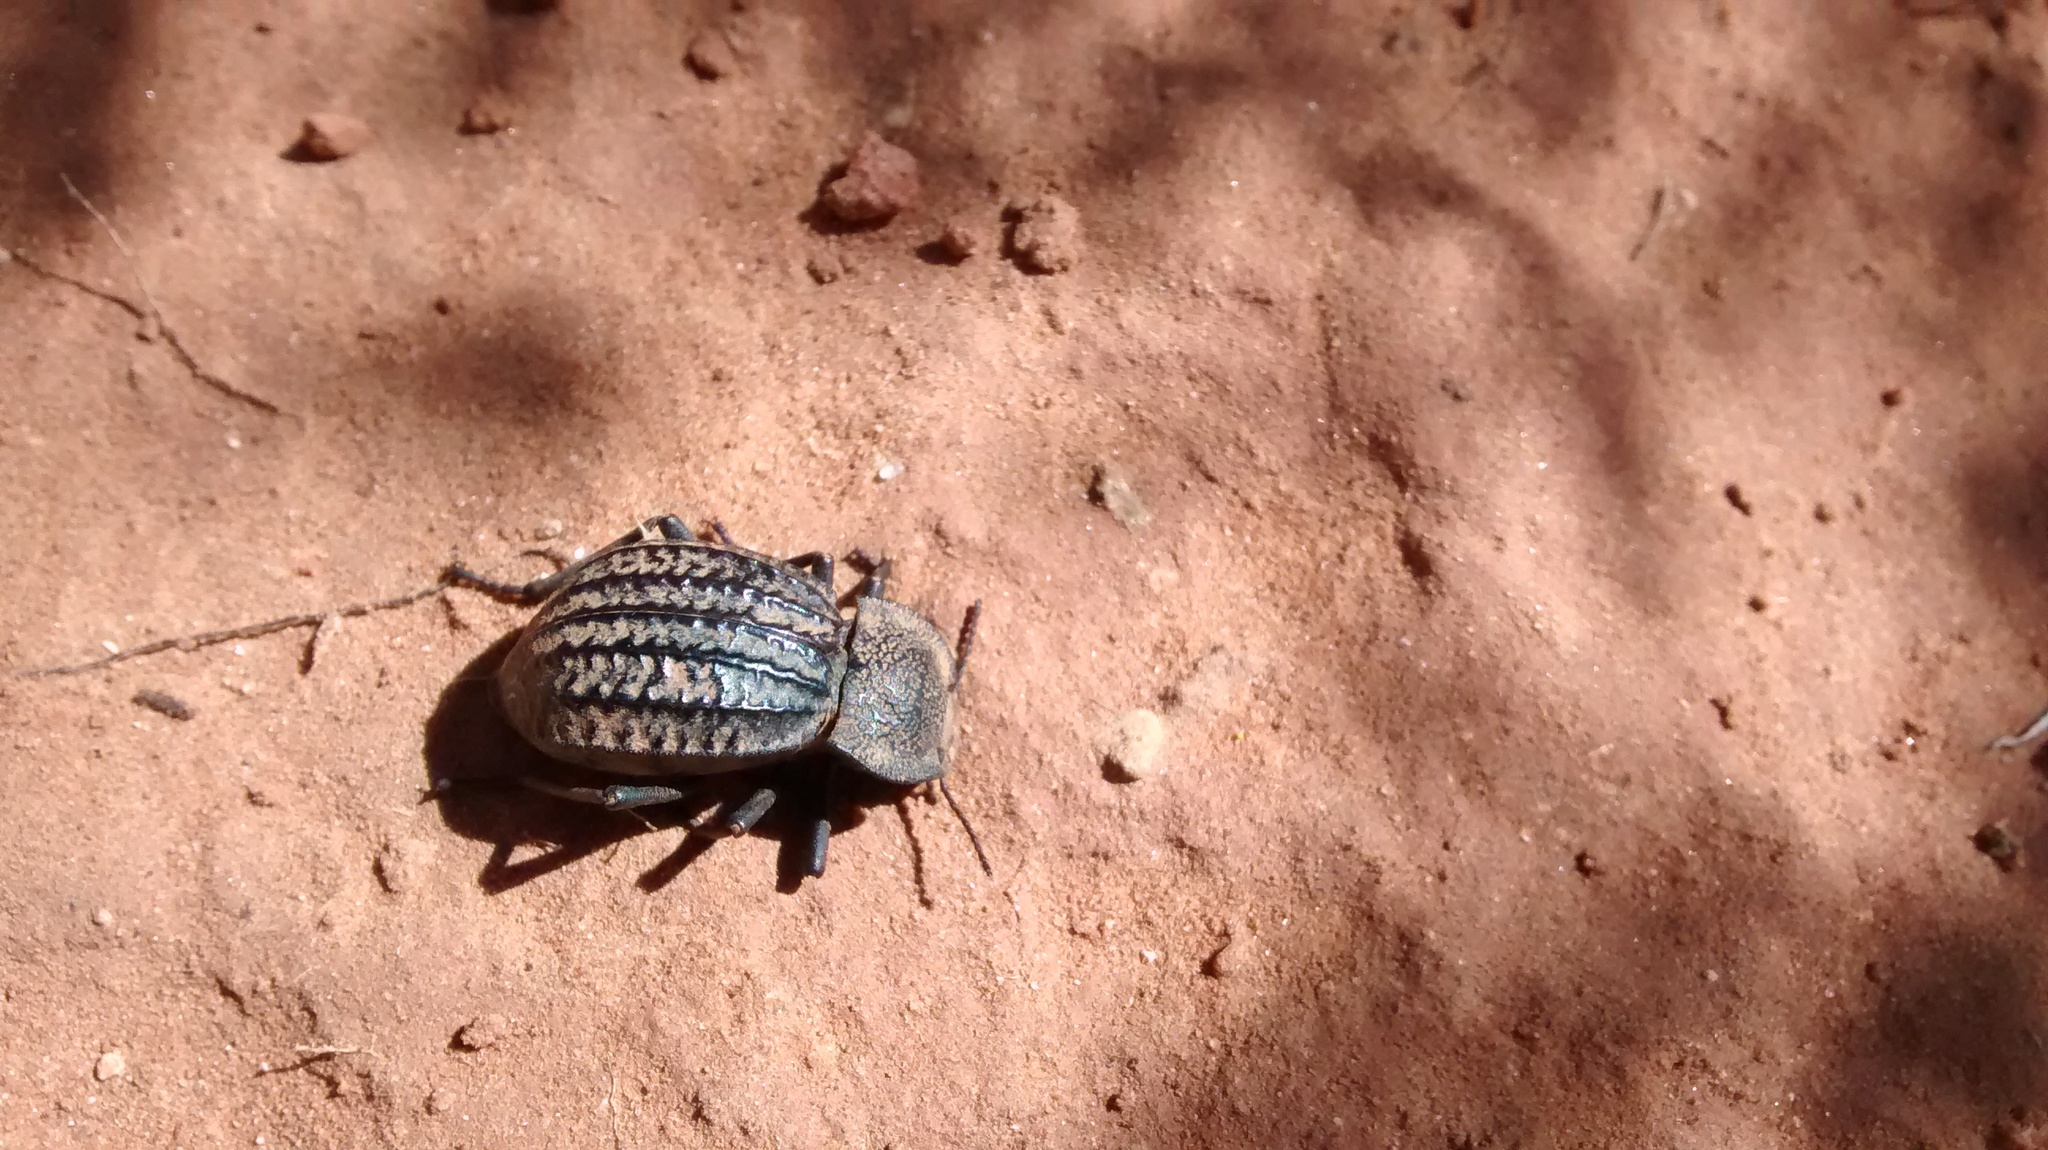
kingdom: Animalia
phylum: Arthropoda
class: Insecta
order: Coleoptera
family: Tenebrionidae
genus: Philolithus
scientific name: Philolithus sordidus
